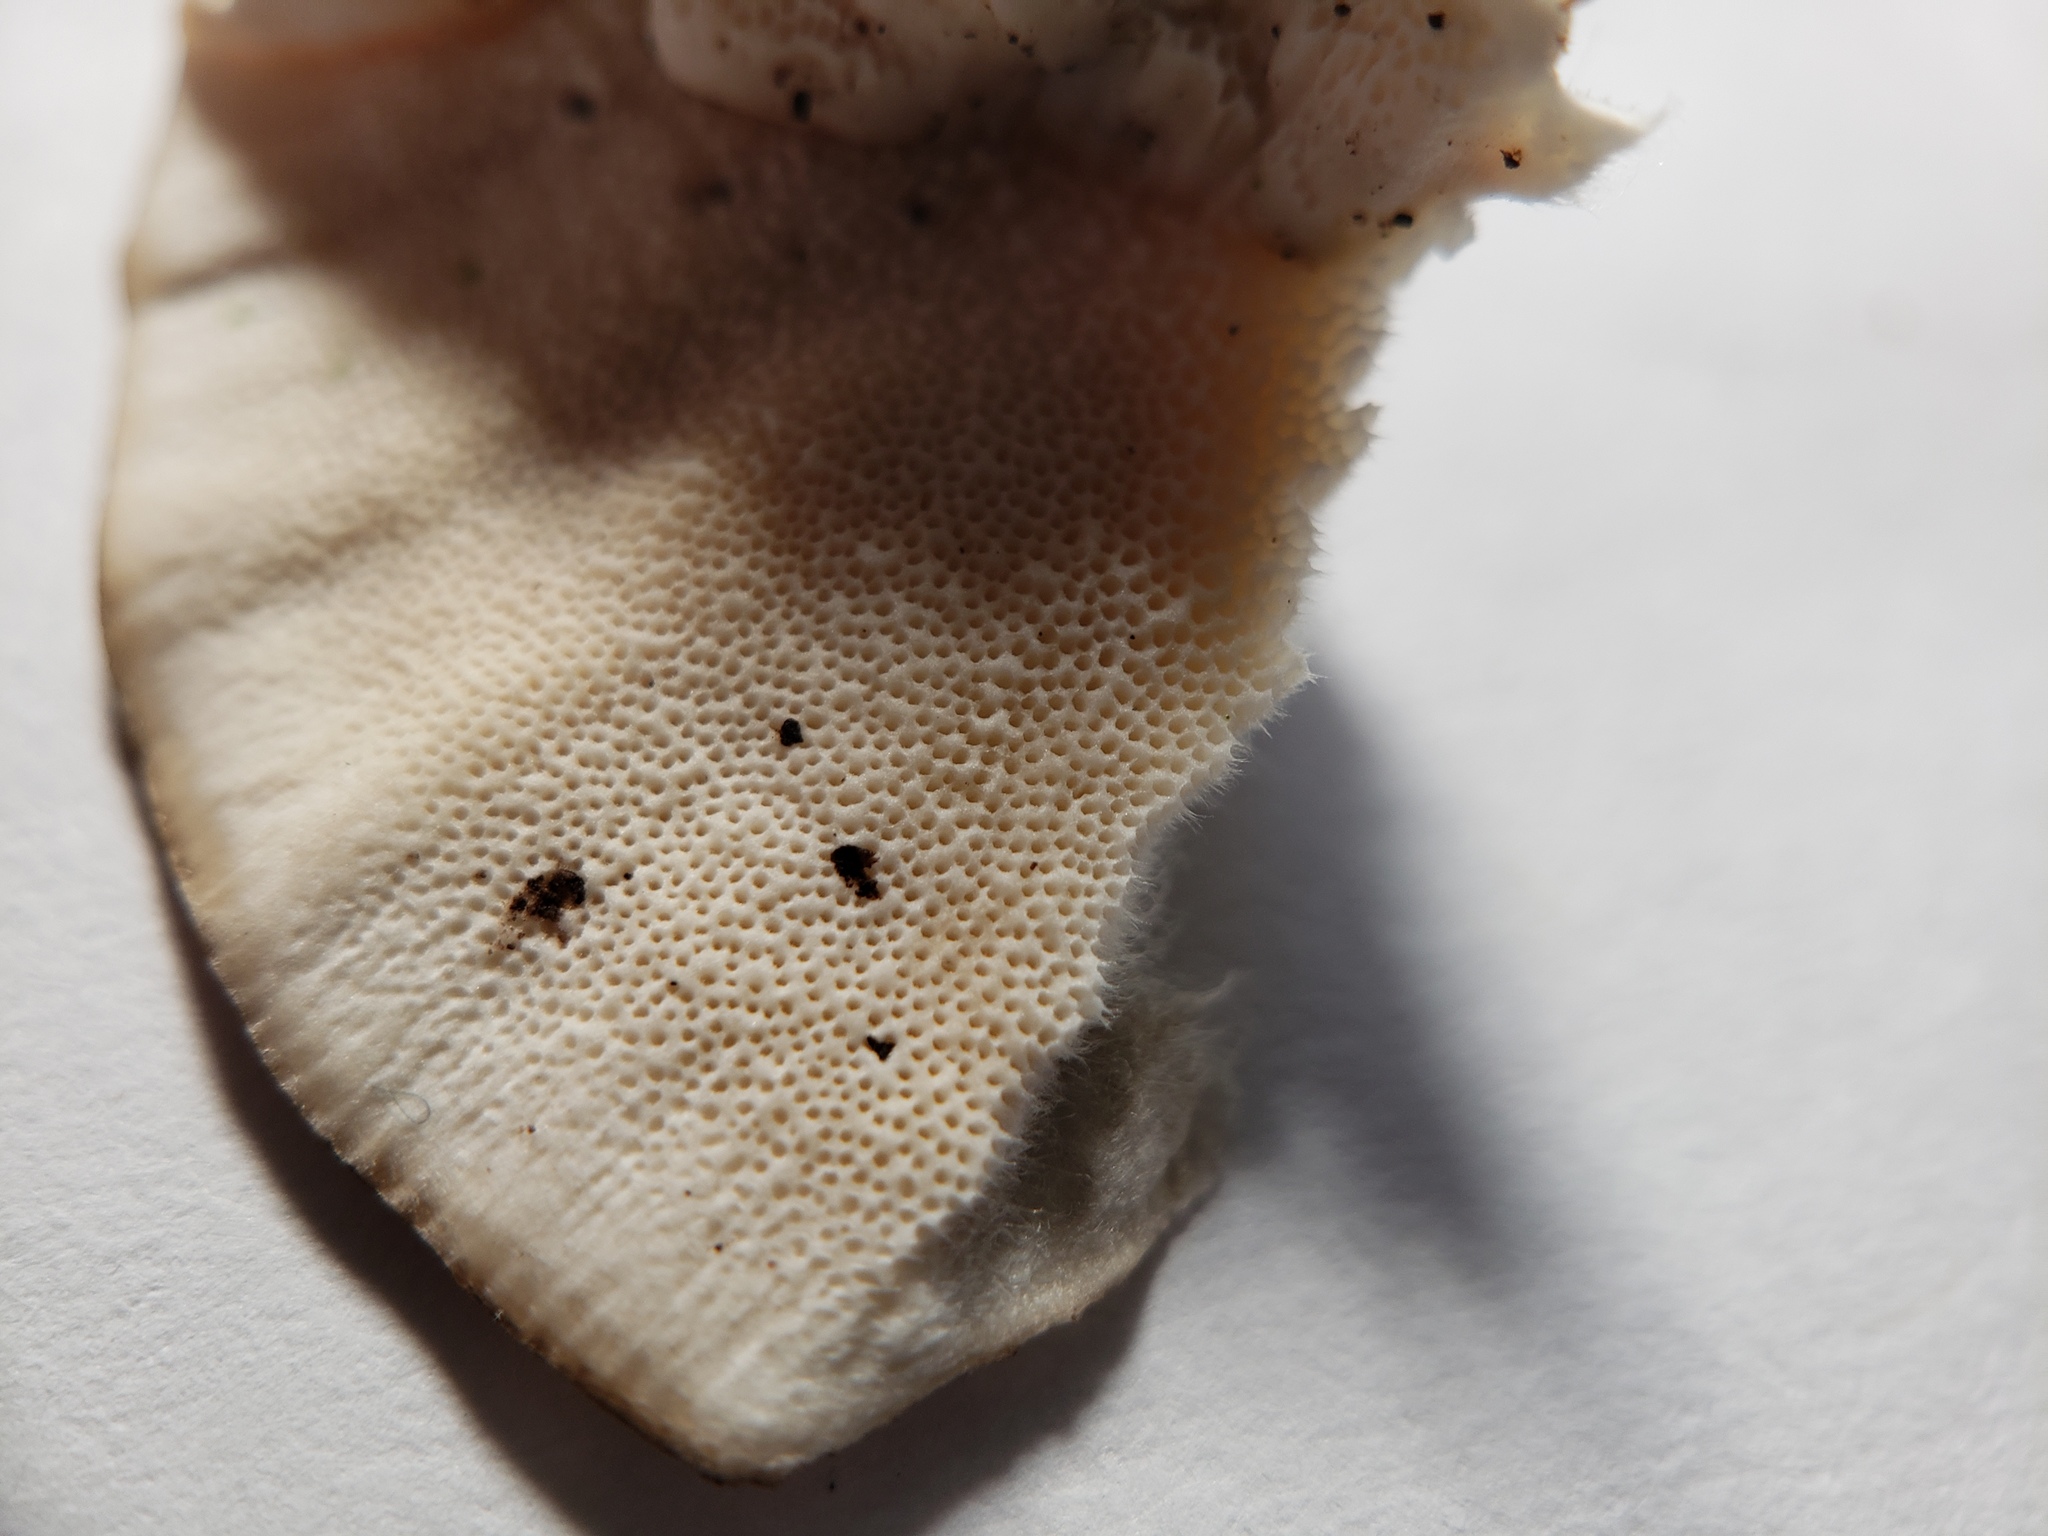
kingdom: Fungi
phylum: Basidiomycota
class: Agaricomycetes
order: Polyporales
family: Polyporaceae
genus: Trametes
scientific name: Trametes versicolor
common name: Turkeytail
